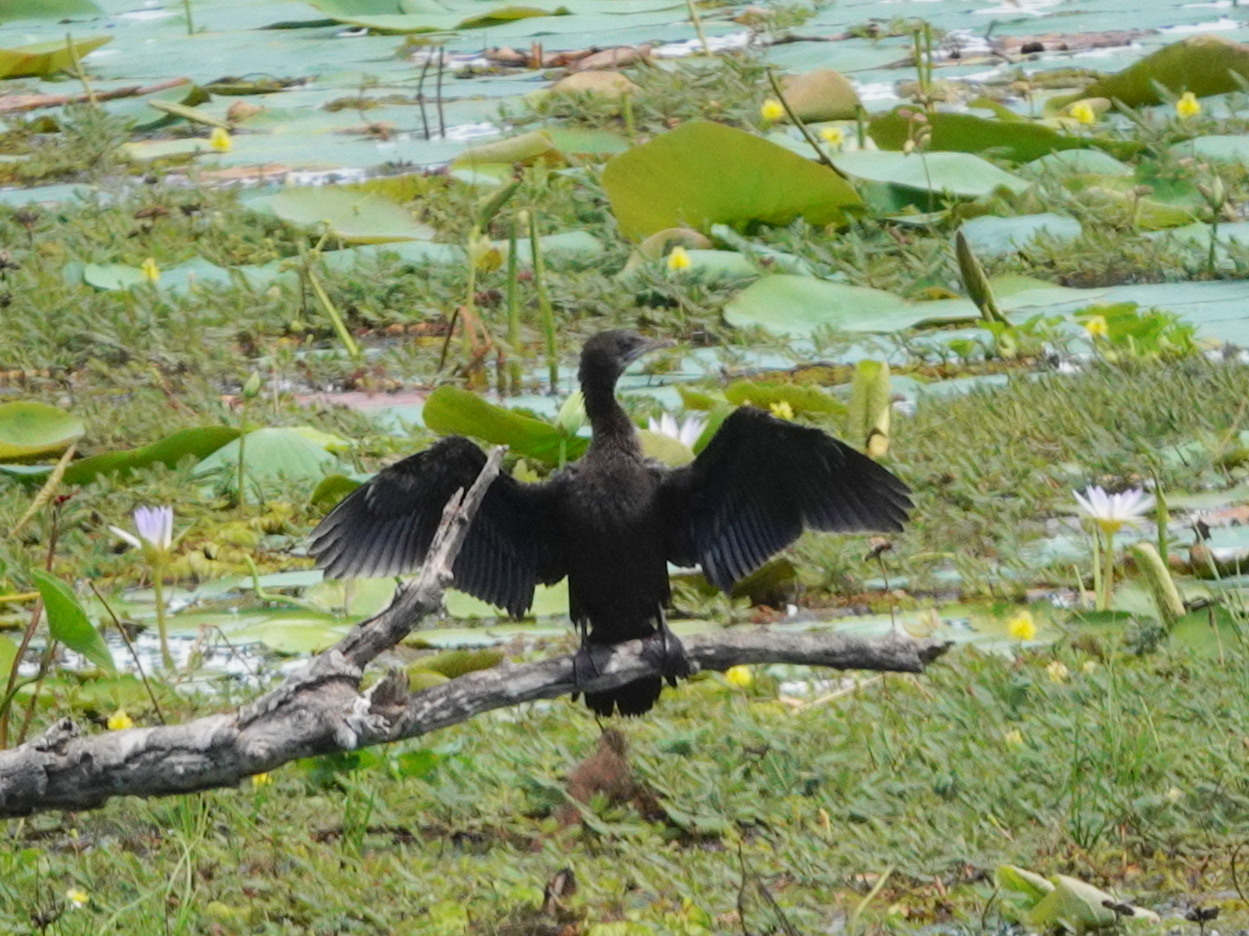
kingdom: Animalia
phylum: Chordata
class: Aves
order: Suliformes
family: Phalacrocoracidae
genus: Microcarbo
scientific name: Microcarbo niger
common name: Little cormorant
